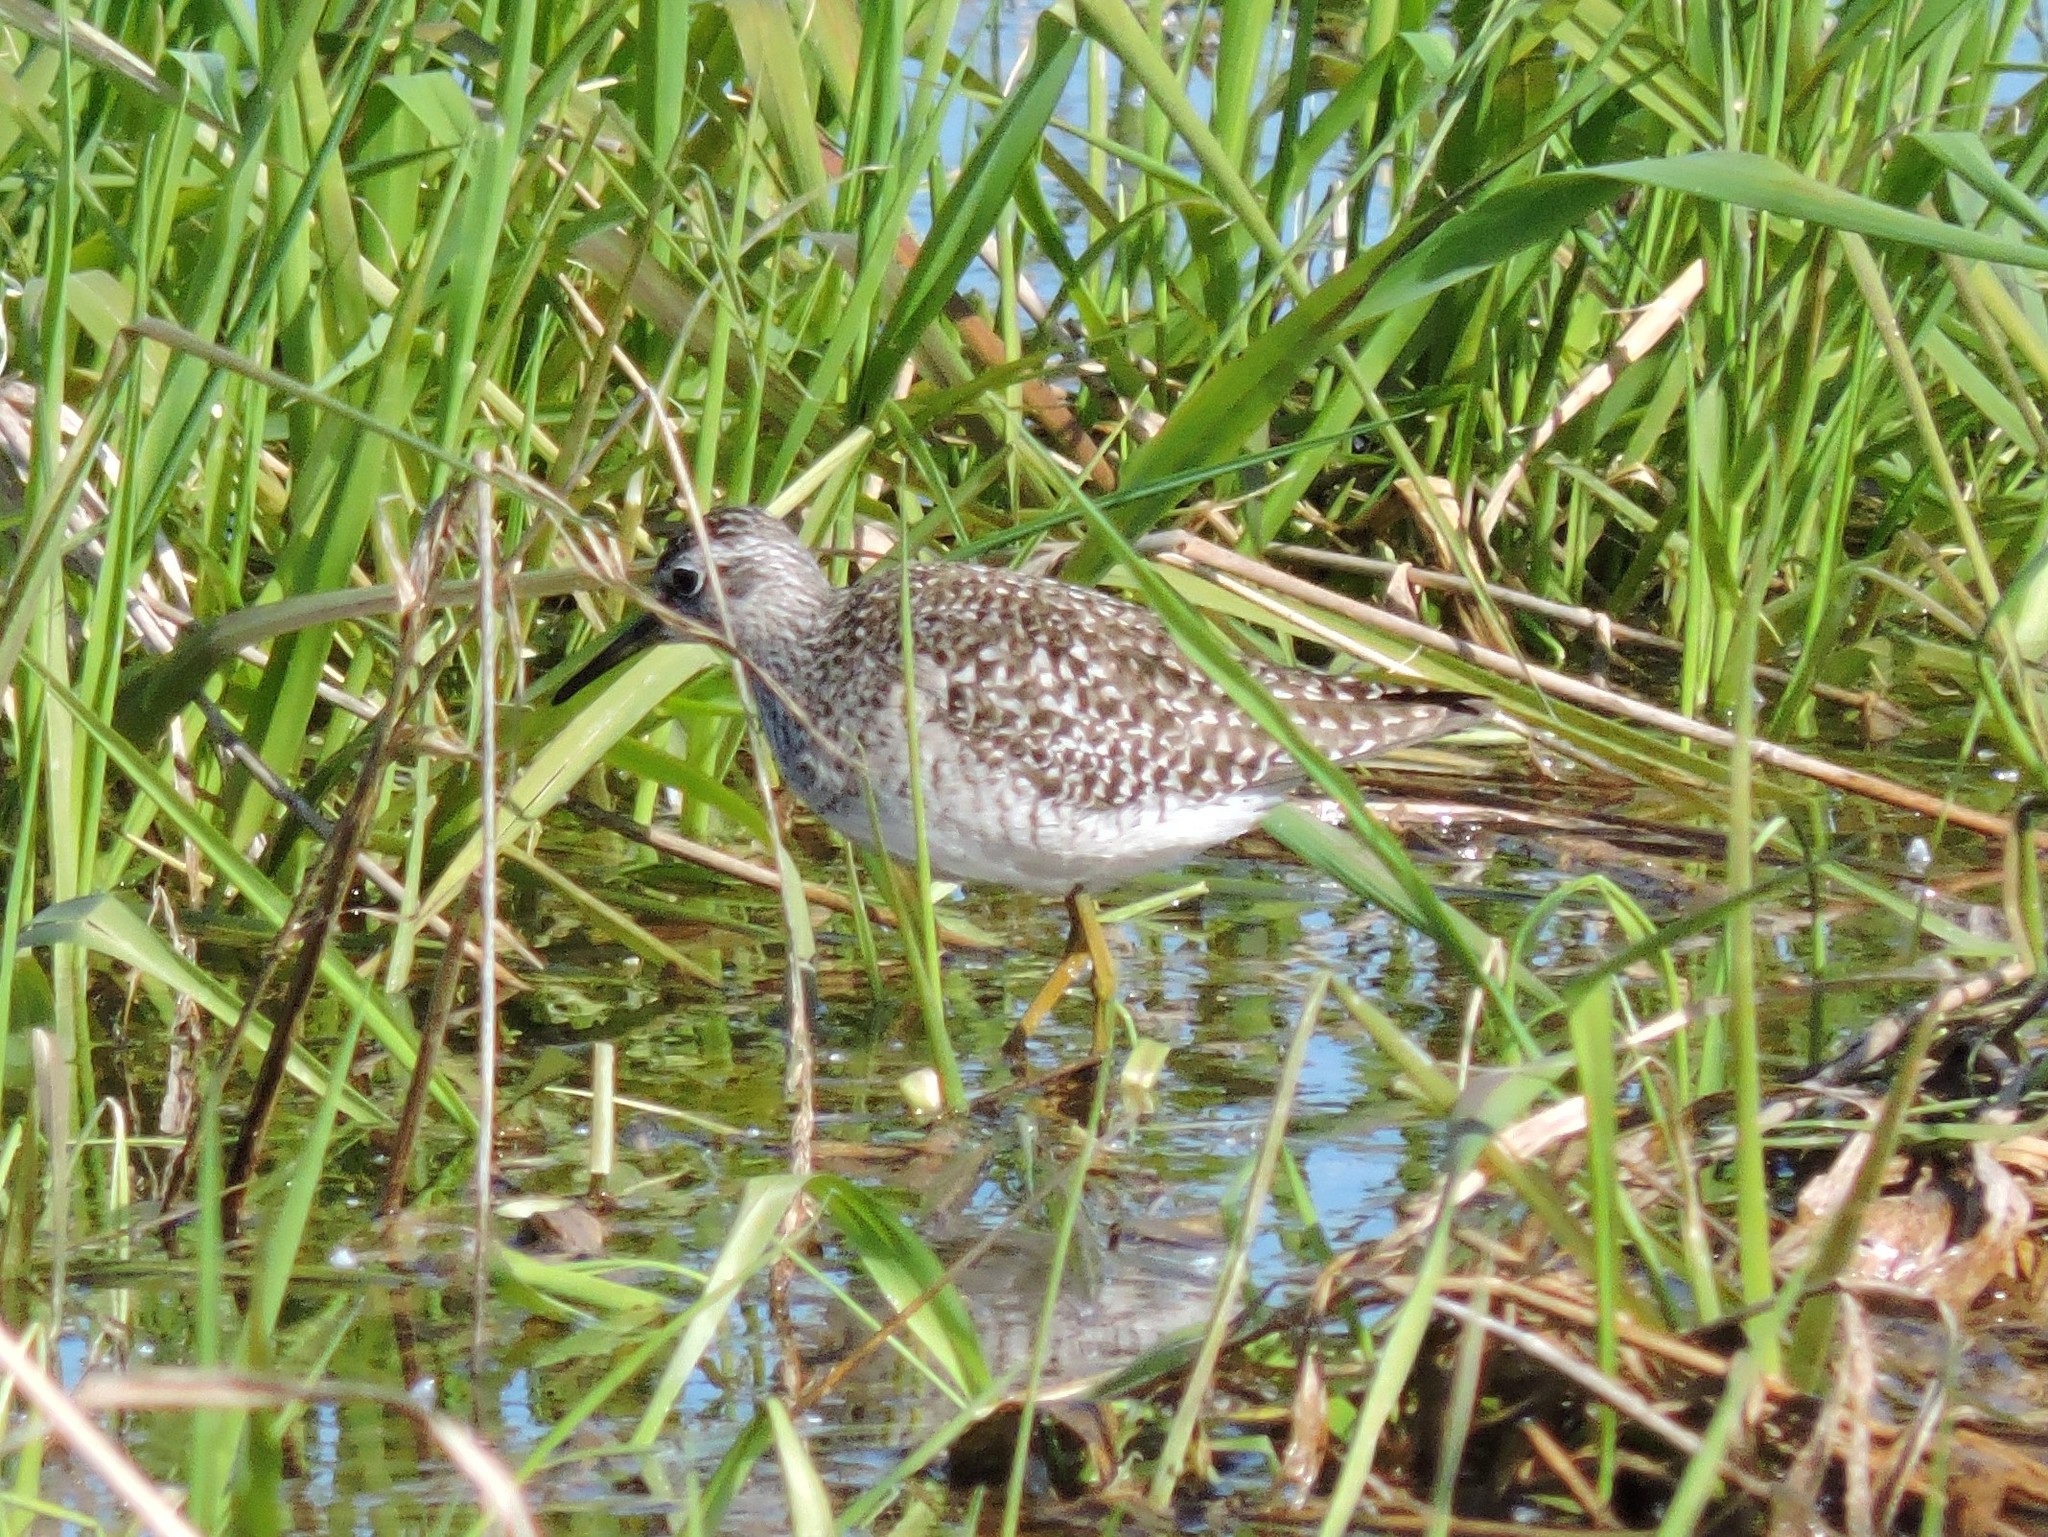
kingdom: Animalia
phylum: Chordata
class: Aves
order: Charadriiformes
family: Scolopacidae
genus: Tringa
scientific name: Tringa glareola
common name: Wood sandpiper
